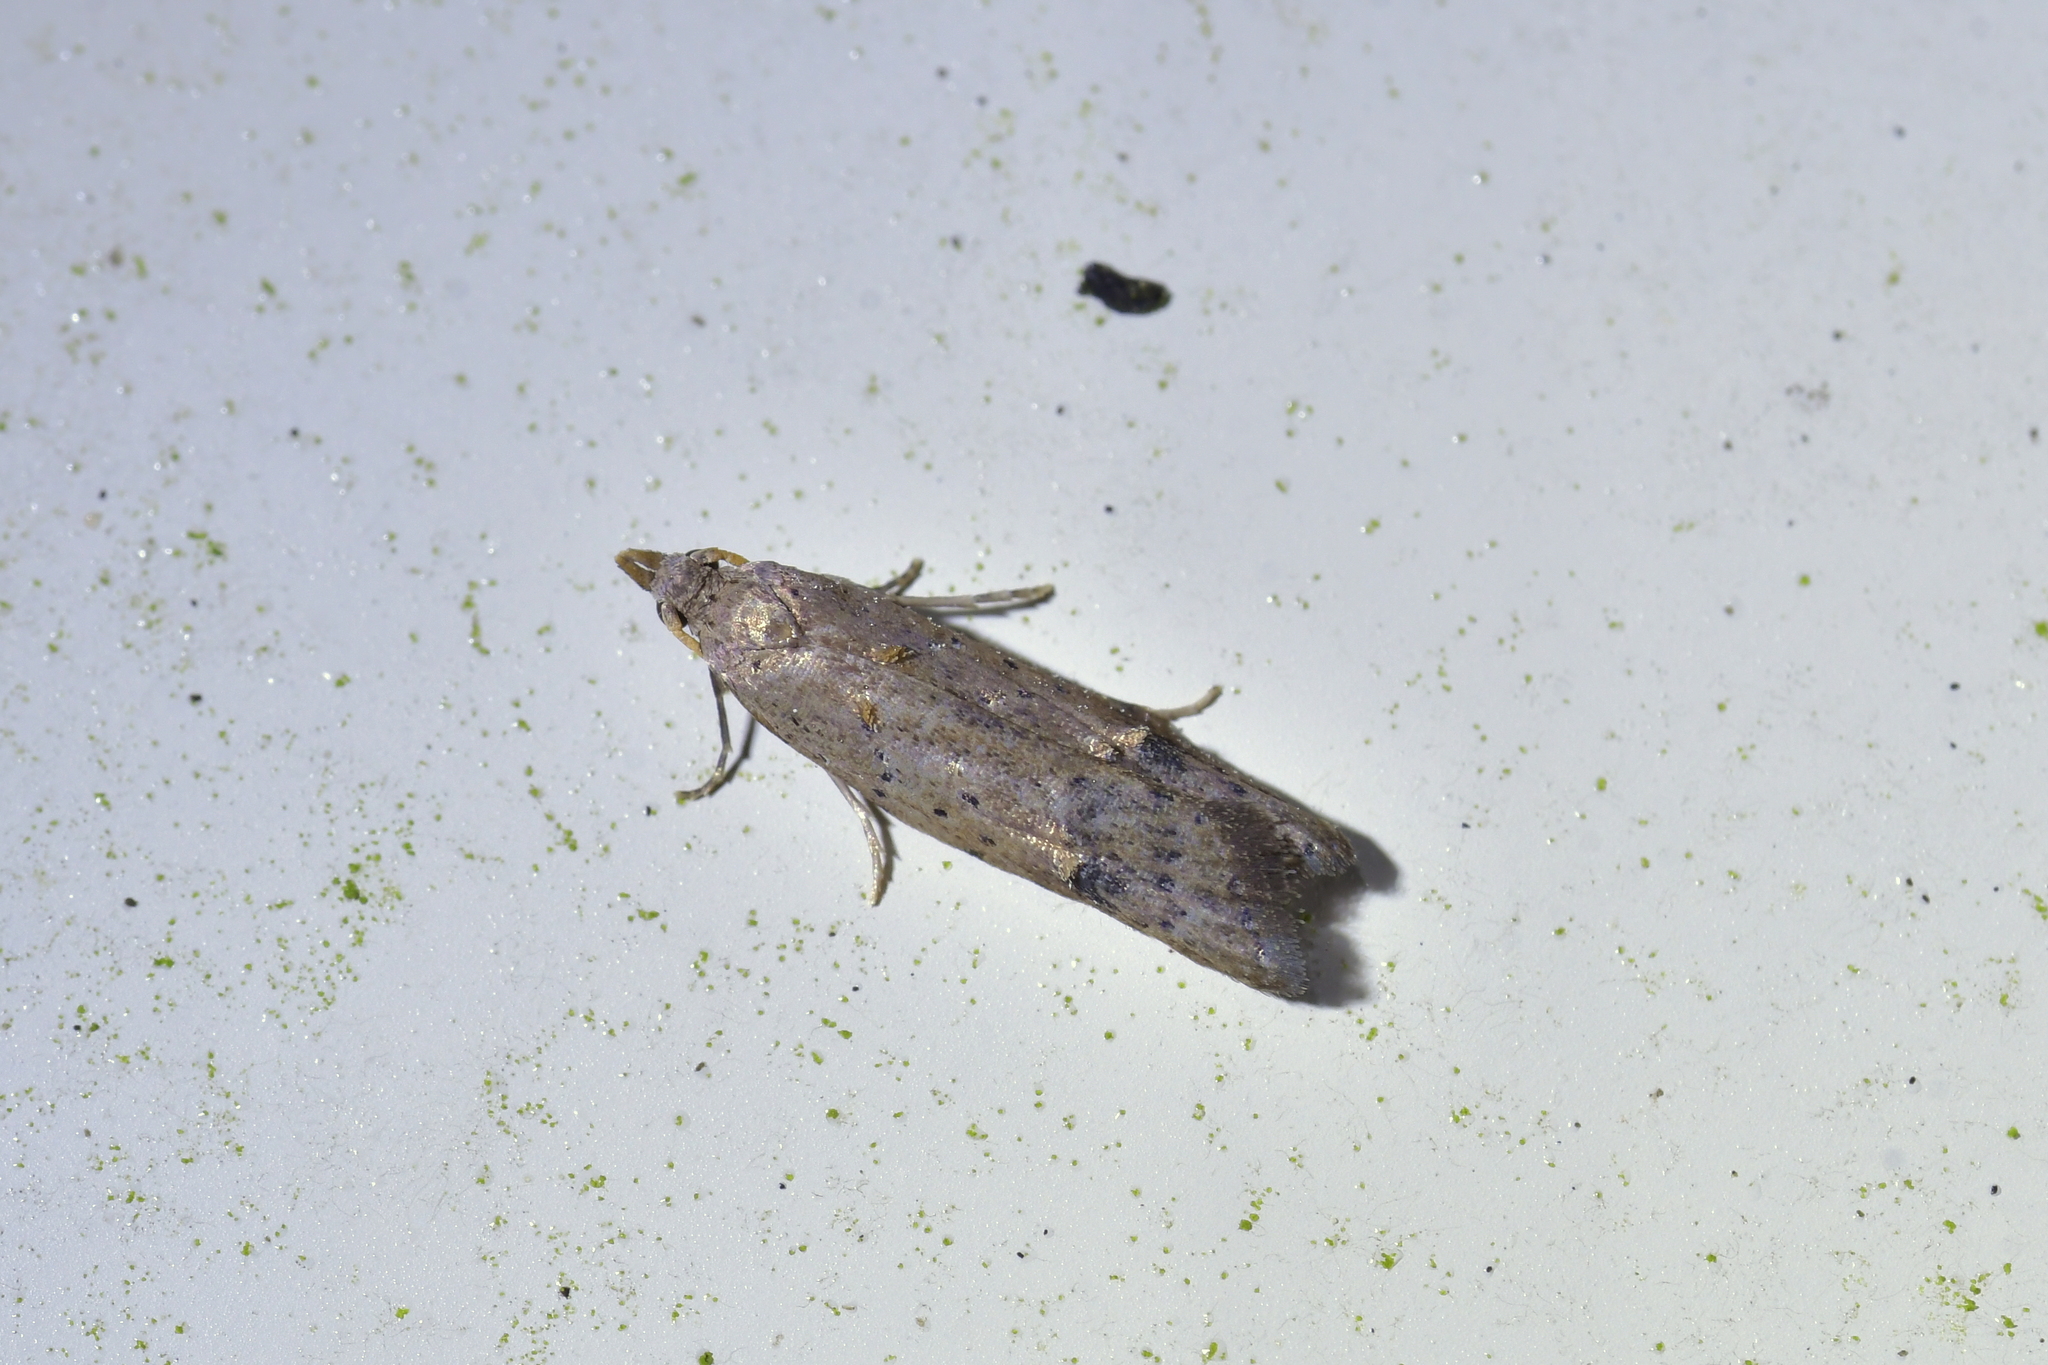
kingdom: Animalia
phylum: Arthropoda
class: Insecta
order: Lepidoptera
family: Carposinidae
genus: Carposina
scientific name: Carposina rubophaga
